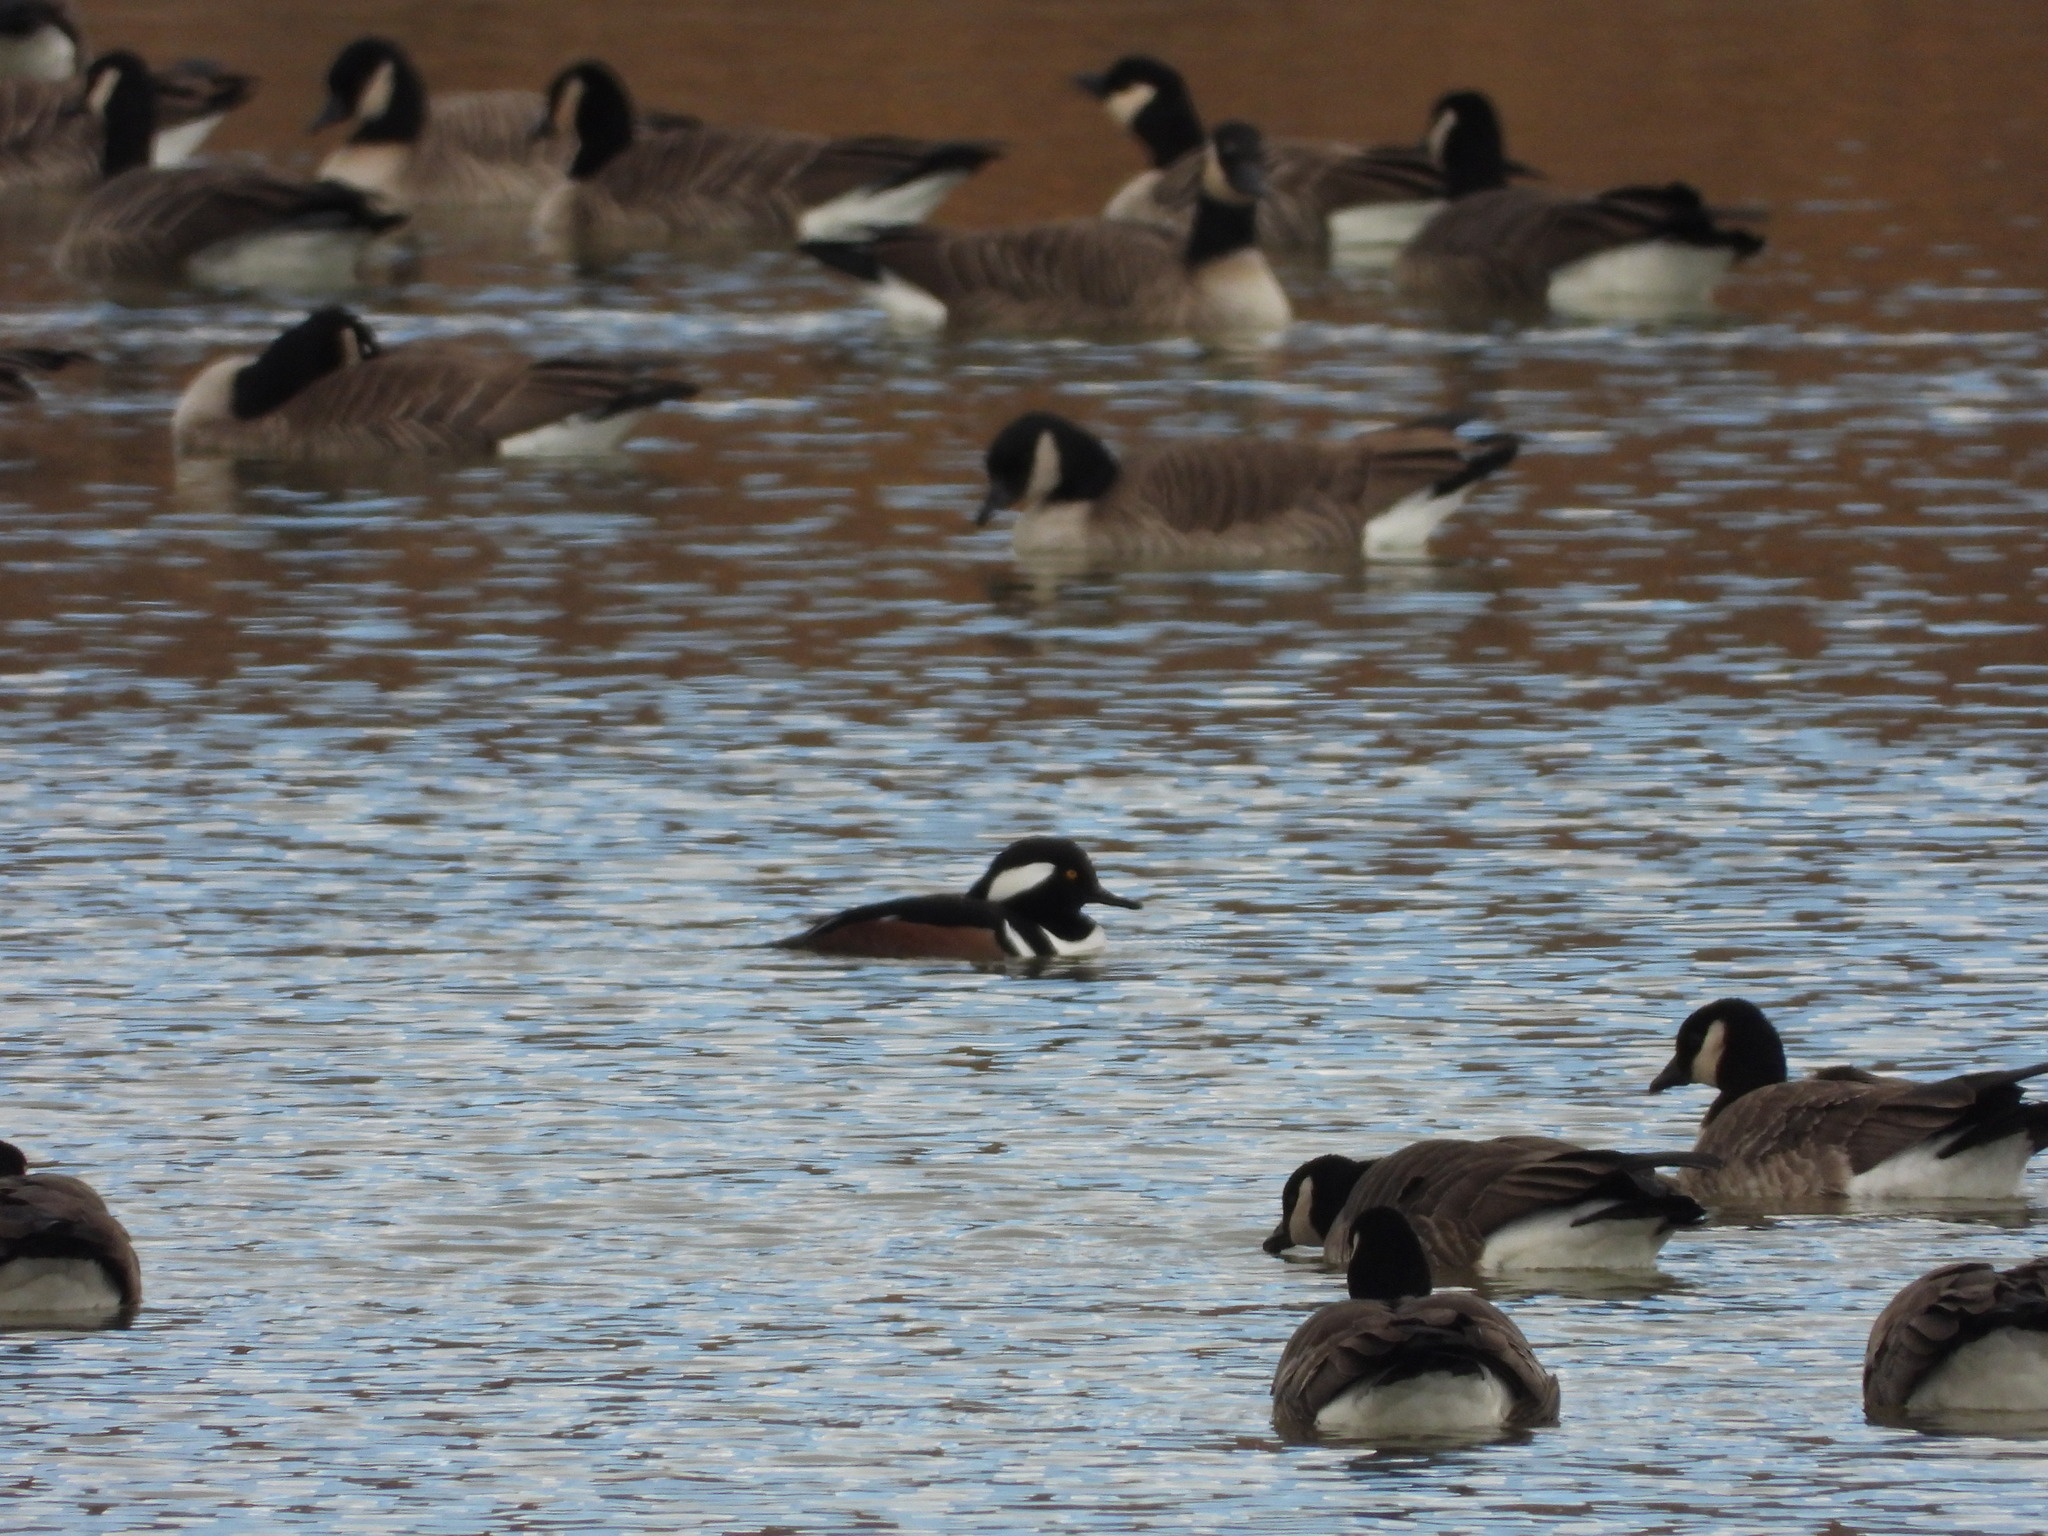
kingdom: Animalia
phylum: Chordata
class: Aves
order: Anseriformes
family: Anatidae
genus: Lophodytes
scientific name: Lophodytes cucullatus
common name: Hooded merganser
